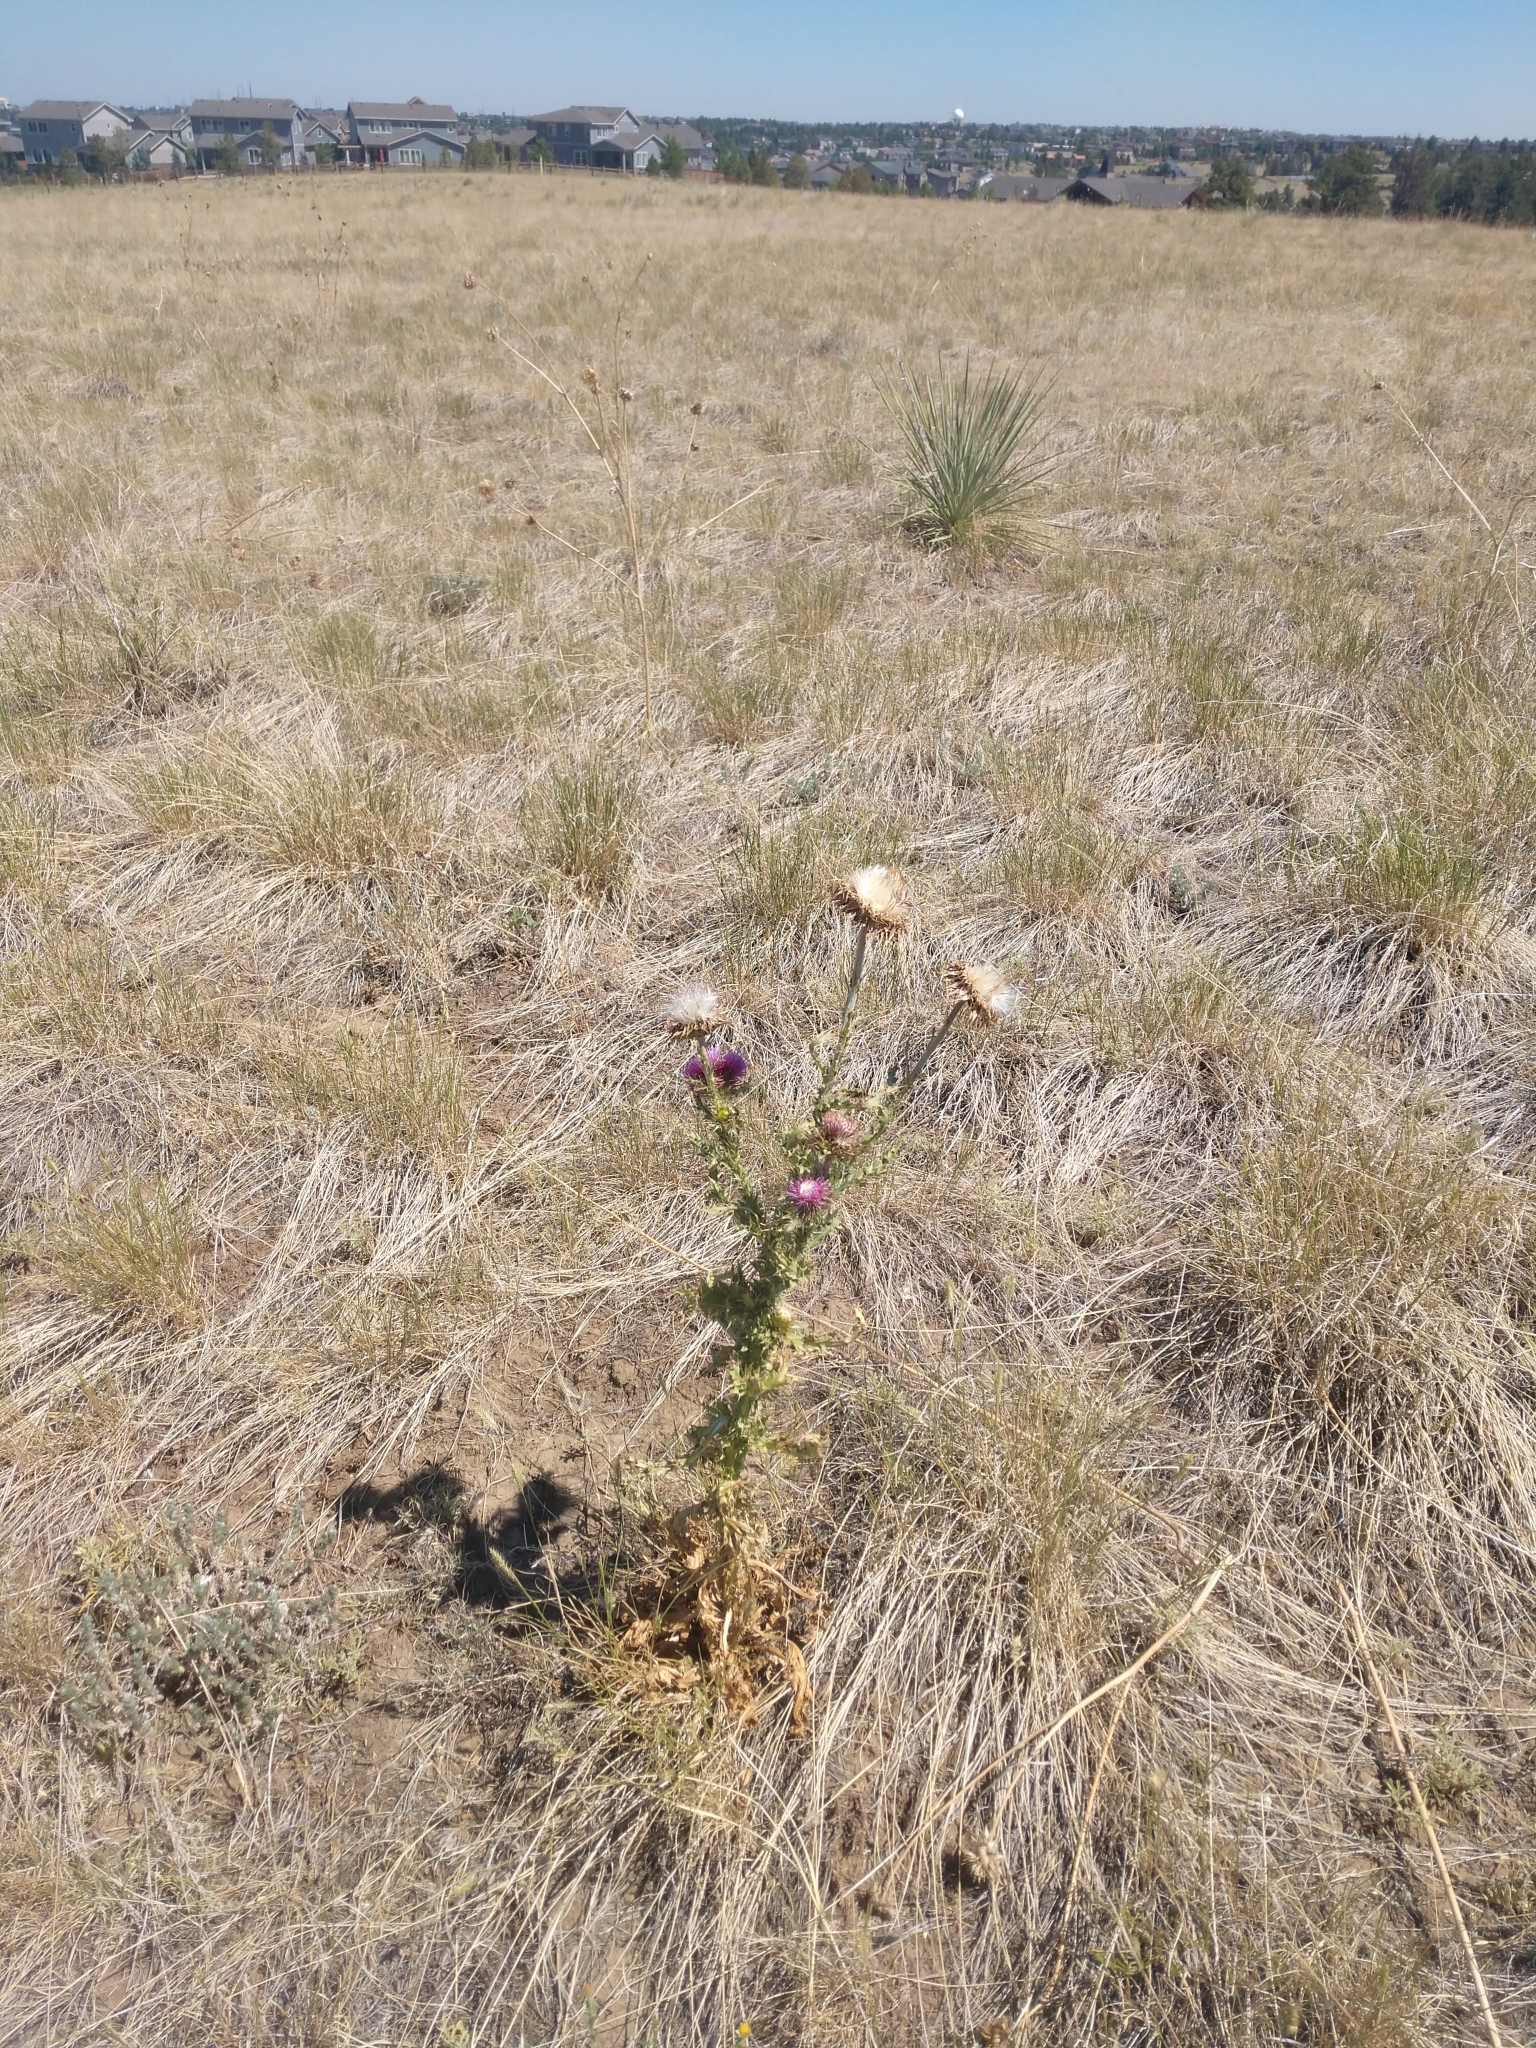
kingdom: Plantae
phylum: Tracheophyta
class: Magnoliopsida
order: Asterales
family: Asteraceae
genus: Carduus
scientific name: Carduus nutans
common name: Musk thistle
